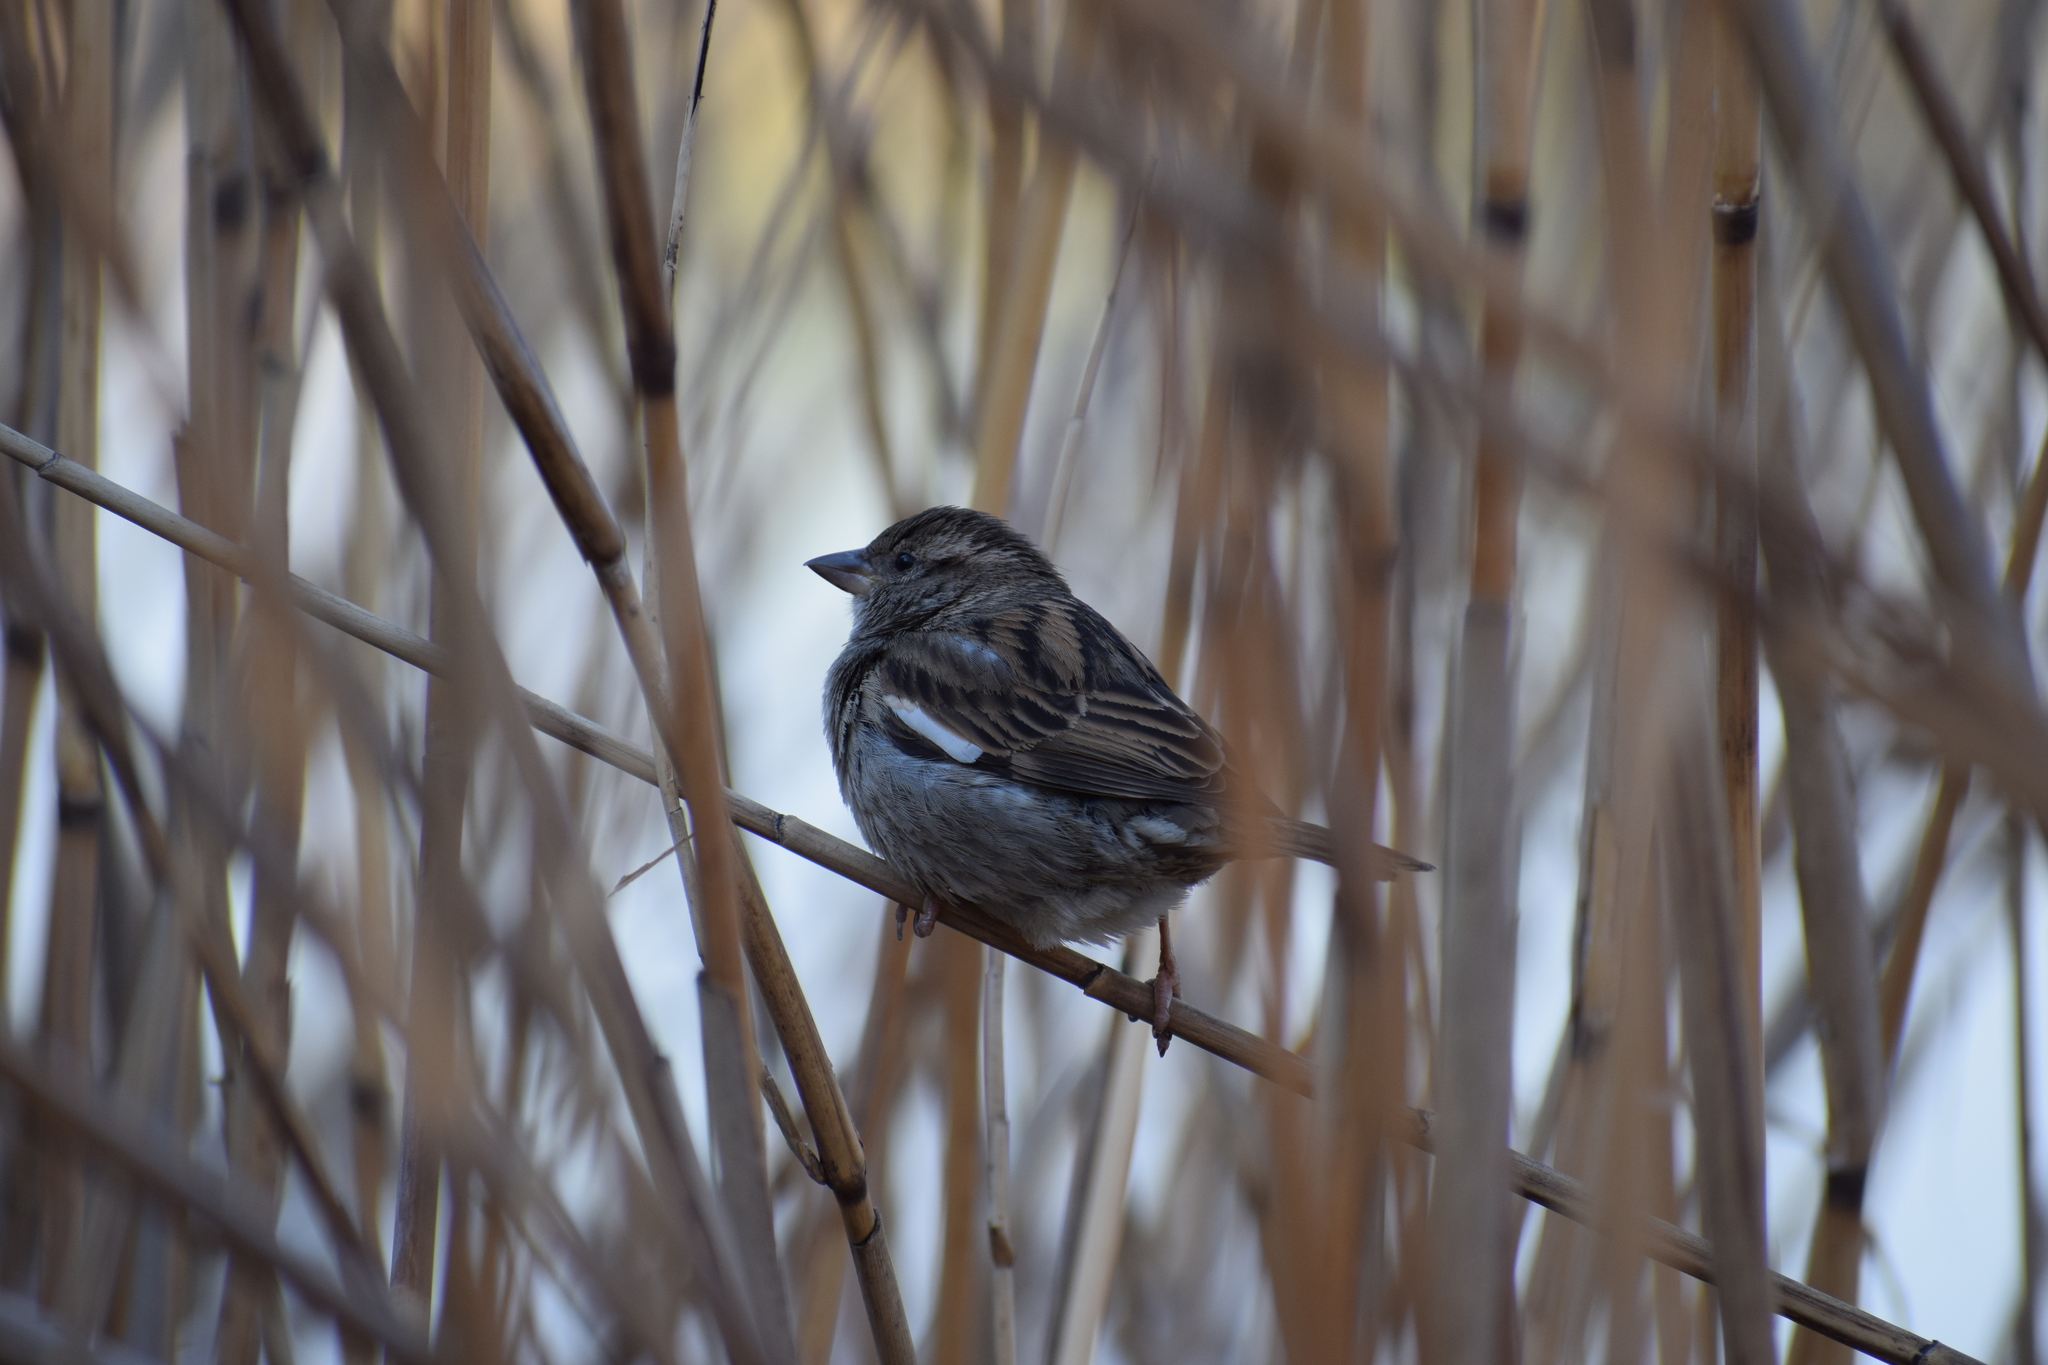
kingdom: Animalia
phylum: Chordata
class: Aves
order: Passeriformes
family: Passeridae
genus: Passer
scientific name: Passer domesticus
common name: House sparrow
